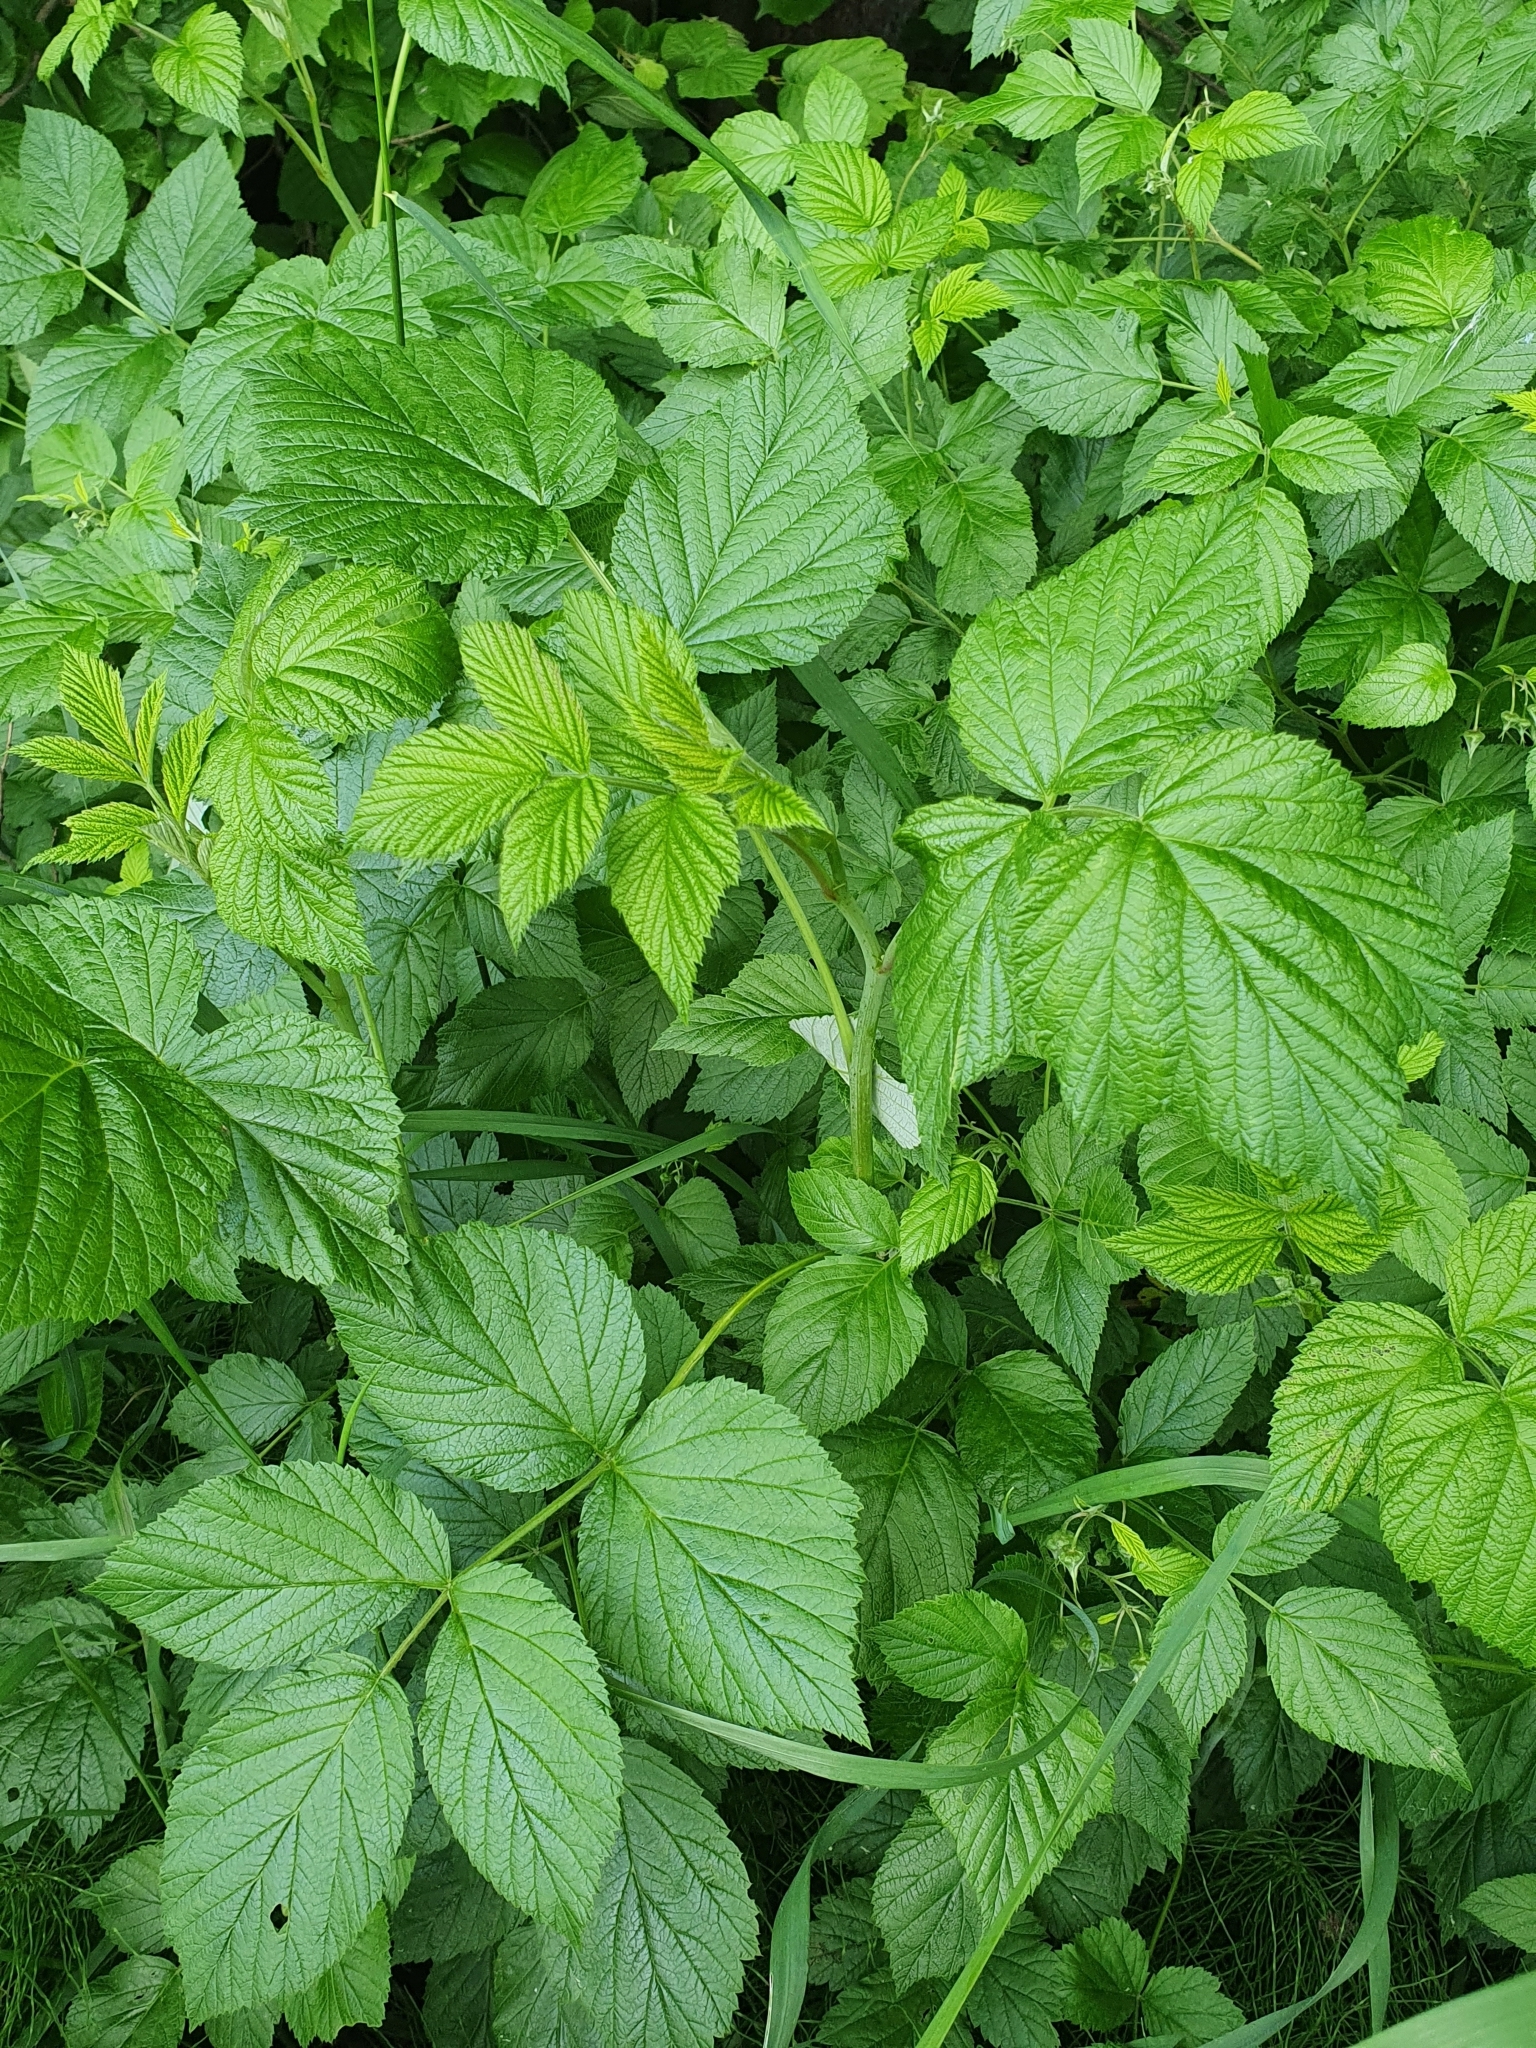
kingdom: Plantae
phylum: Tracheophyta
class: Magnoliopsida
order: Rosales
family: Rosaceae
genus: Rubus
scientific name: Rubus idaeus
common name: Raspberry
